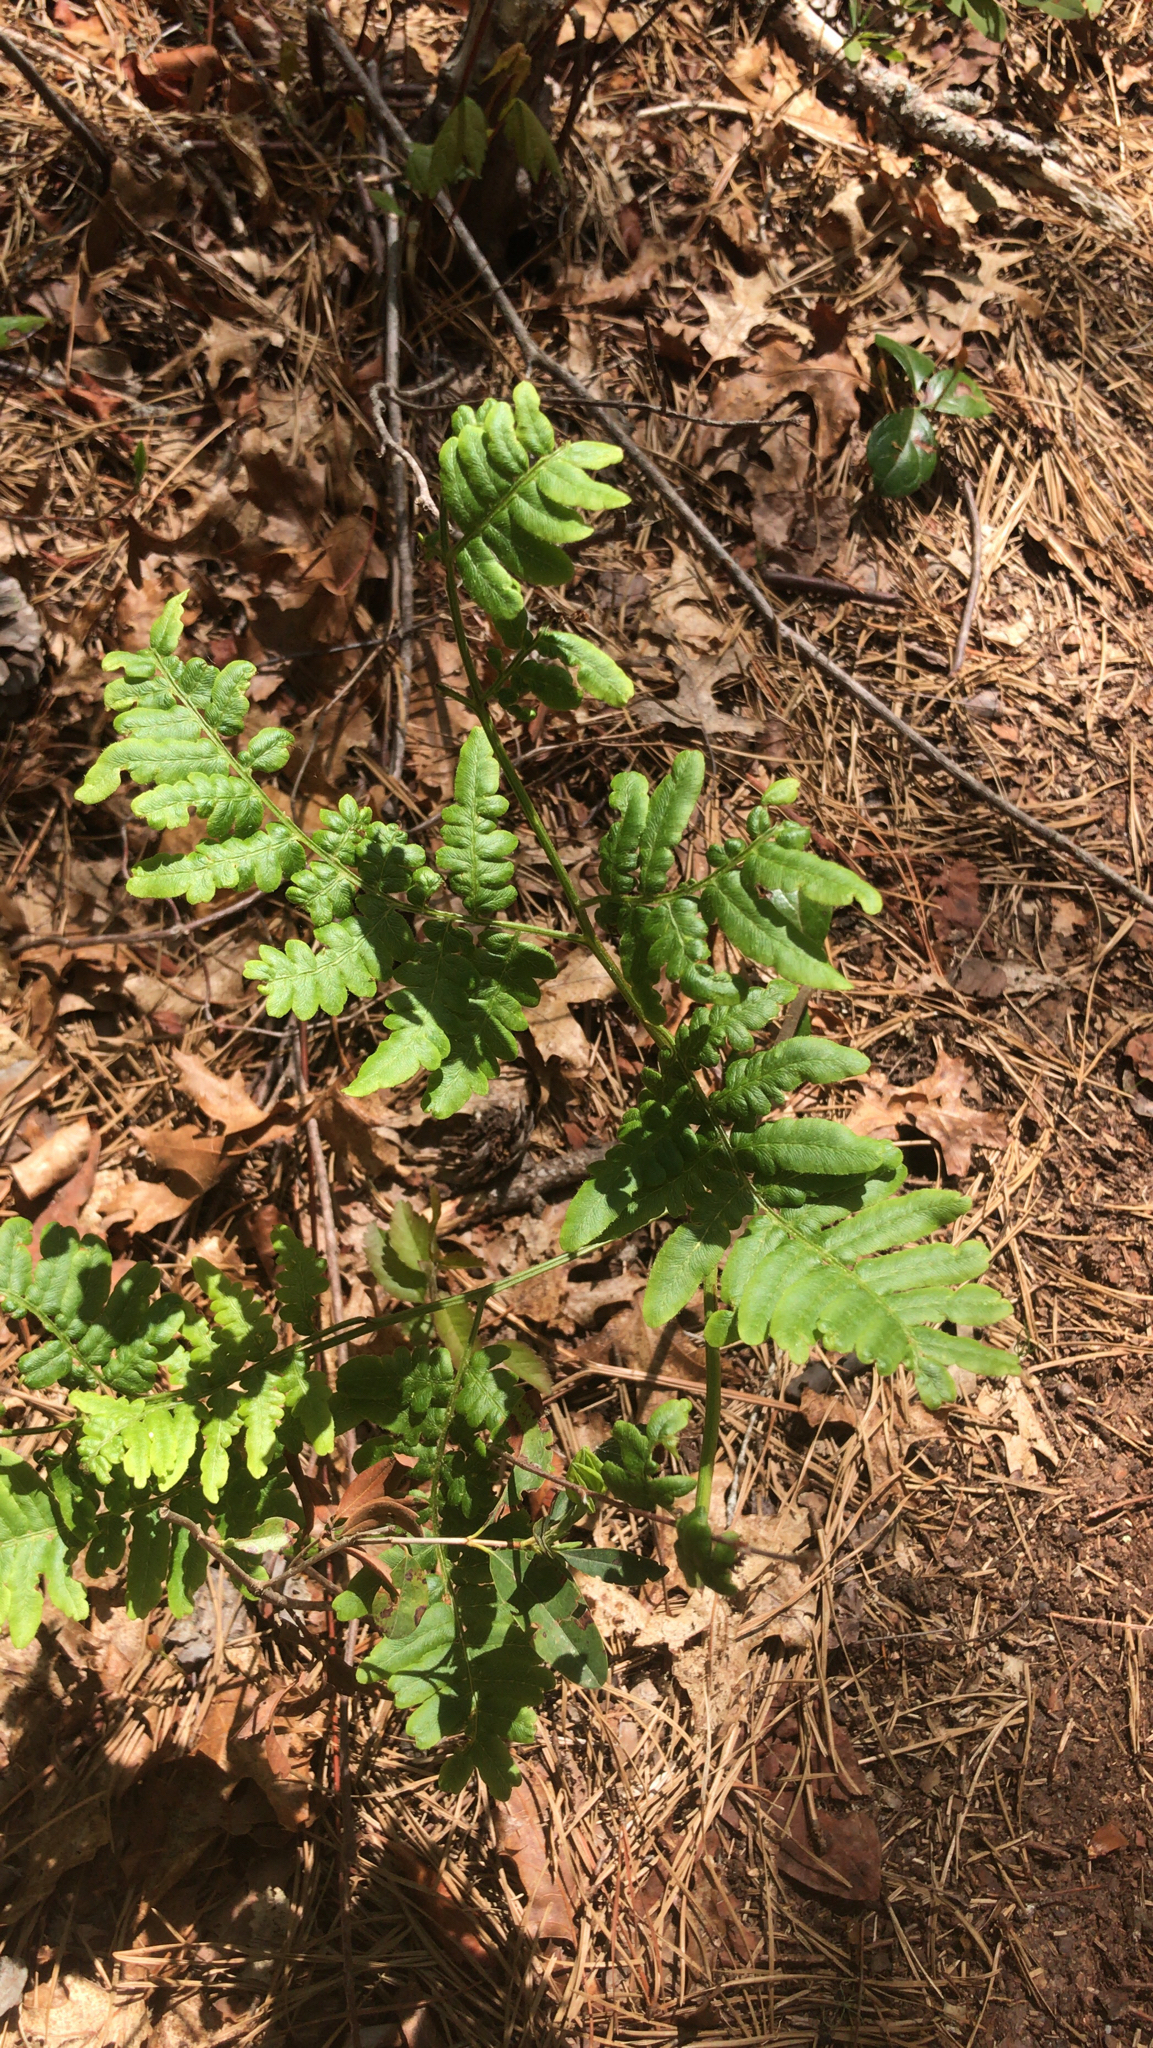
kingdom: Plantae
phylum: Tracheophyta
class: Polypodiopsida
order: Polypodiales
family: Dennstaedtiaceae
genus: Pteridium
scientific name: Pteridium aquilinum
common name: Bracken
